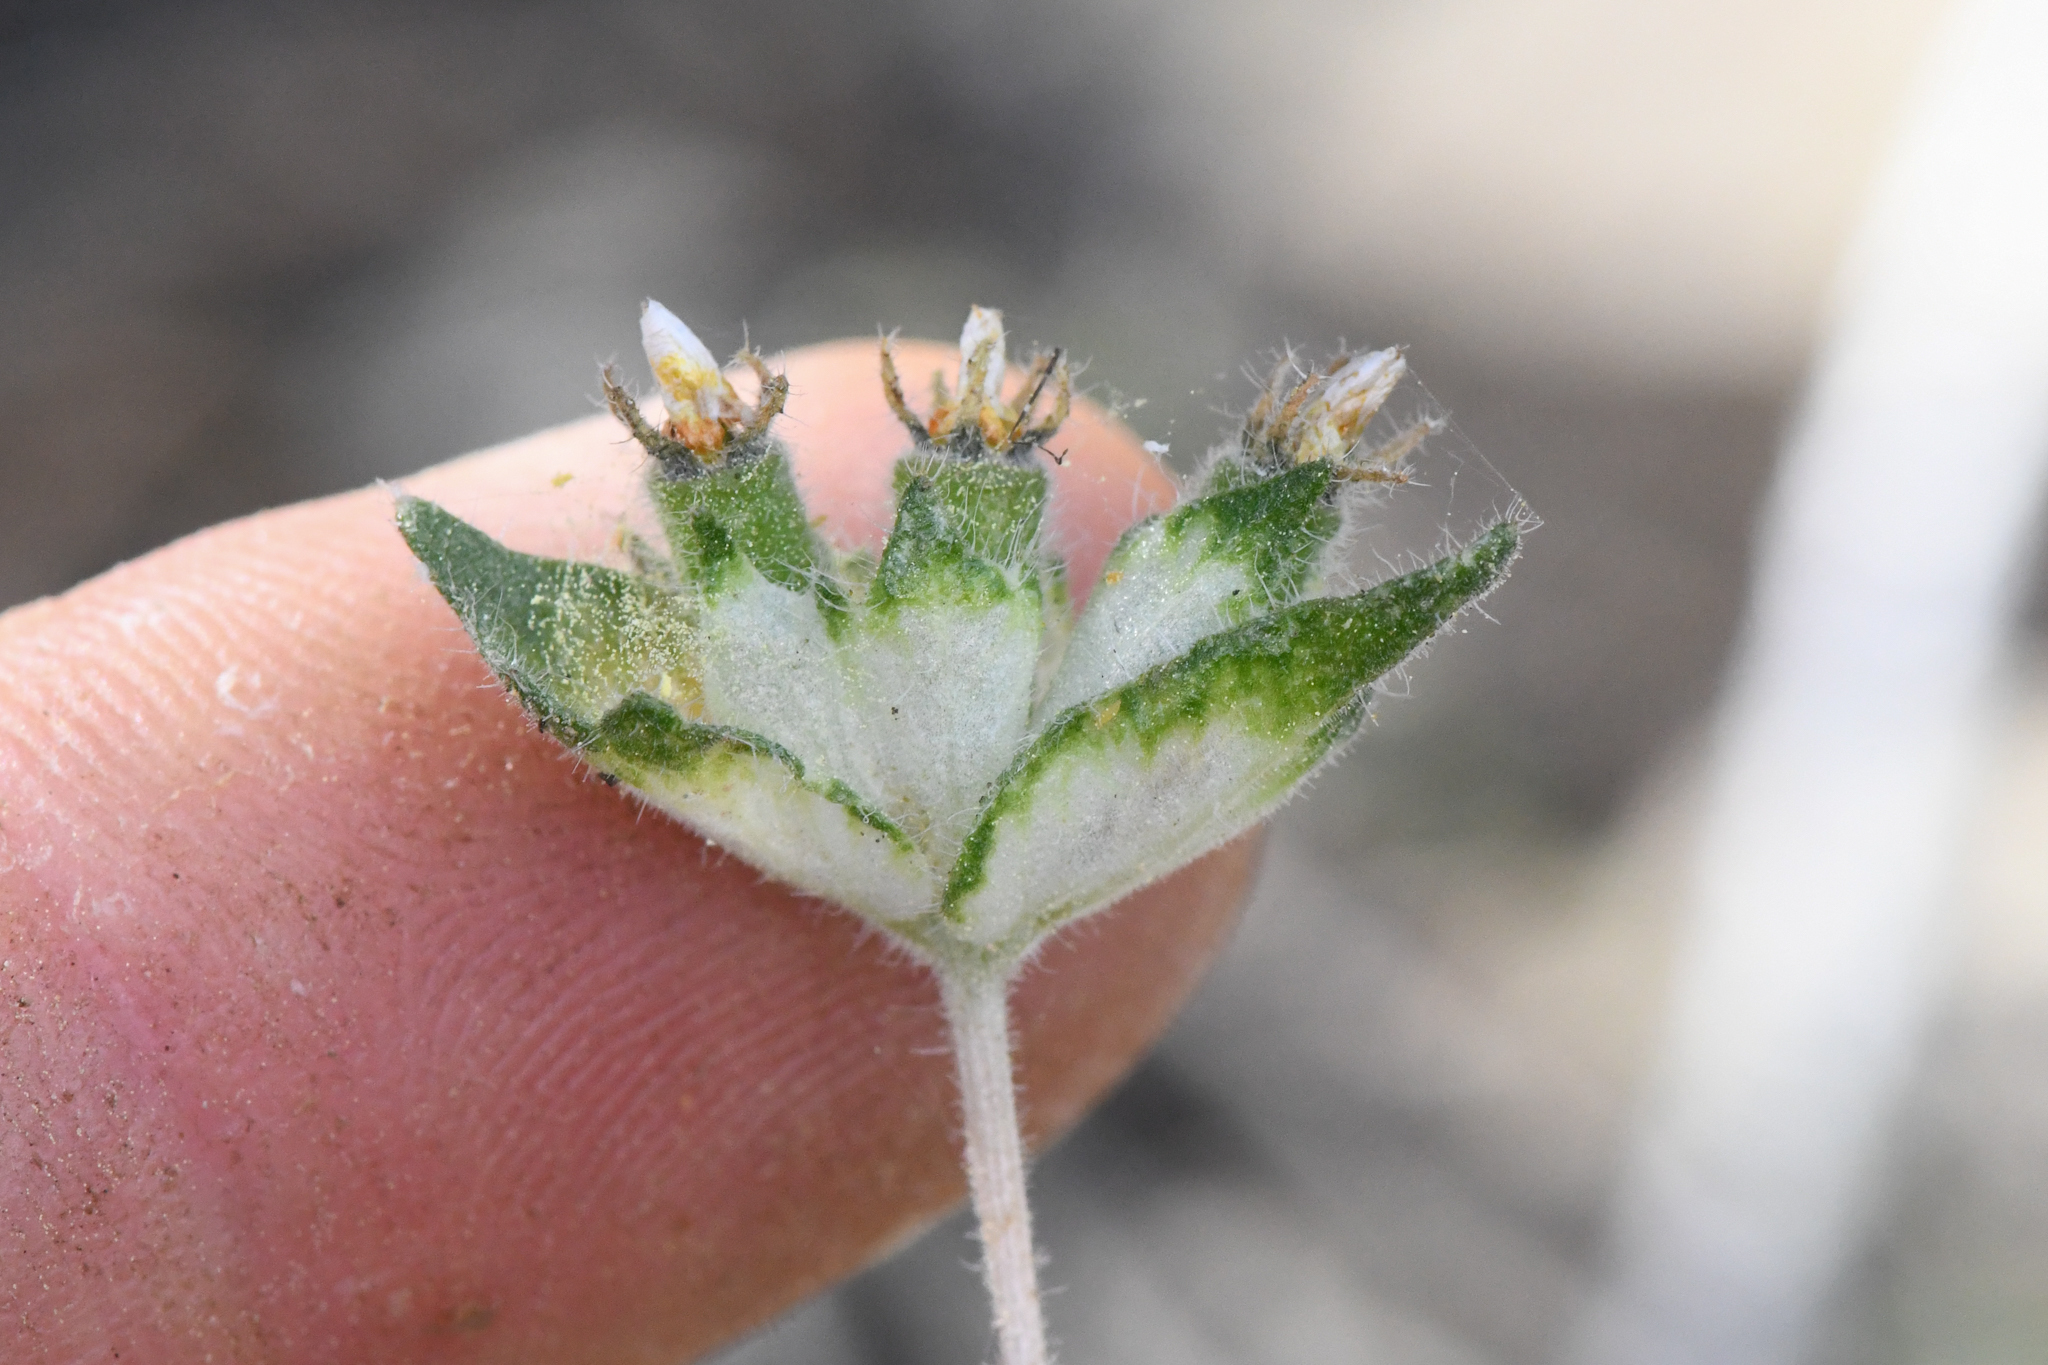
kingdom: Plantae
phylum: Tracheophyta
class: Magnoliopsida
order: Cornales
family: Loasaceae
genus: Mentzelia
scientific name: Mentzelia congesta
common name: Ventana blazingstar
